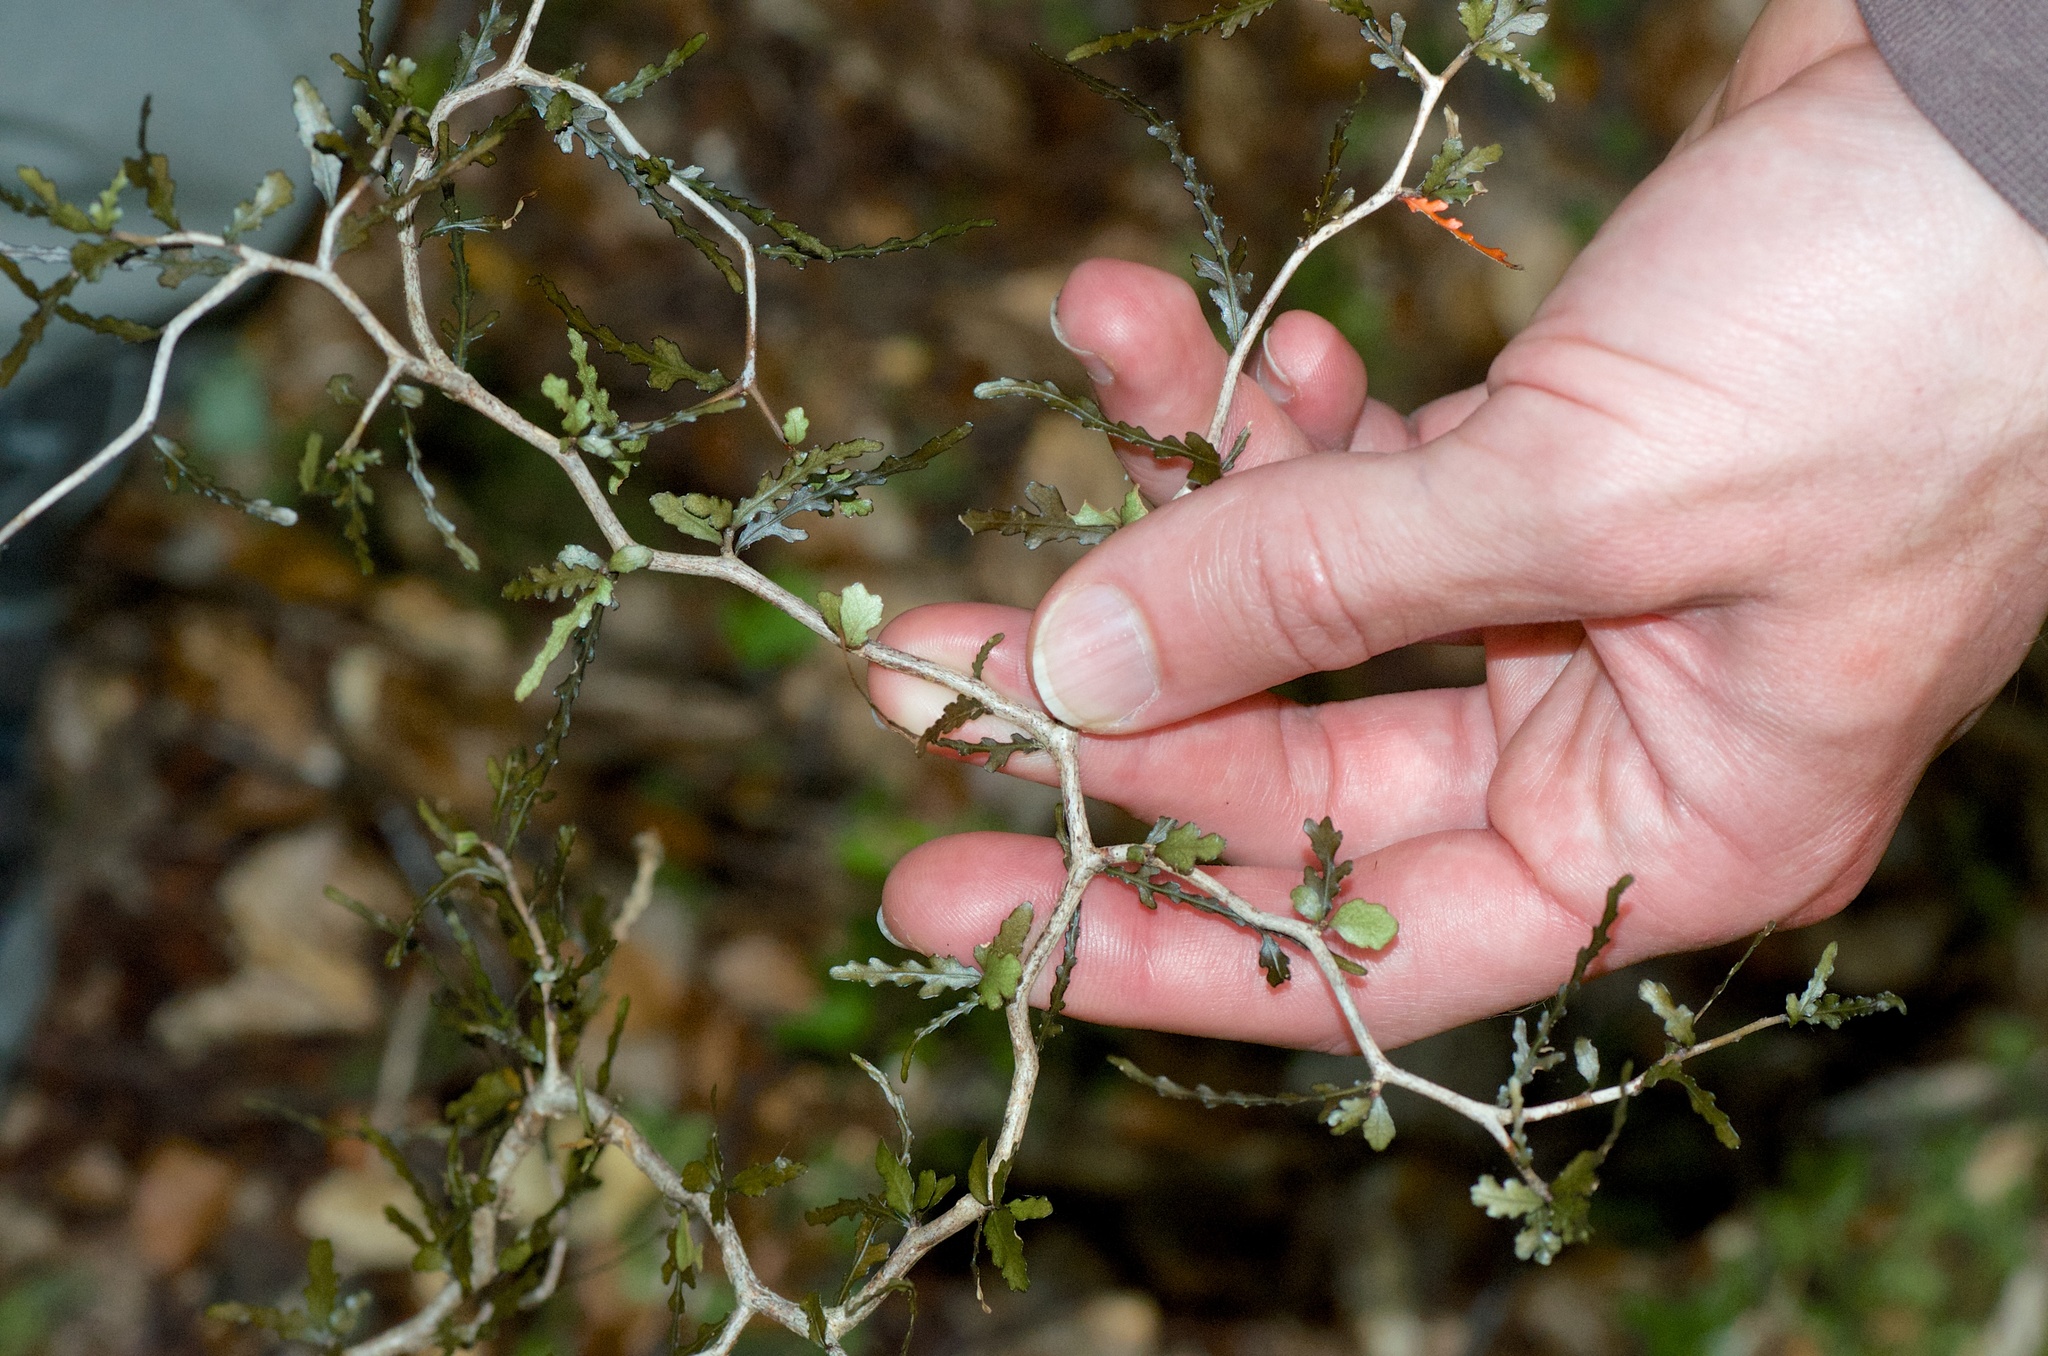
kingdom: Plantae
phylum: Tracheophyta
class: Magnoliopsida
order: Oxalidales
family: Elaeocarpaceae
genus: Elaeocarpus
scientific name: Elaeocarpus hookerianus
